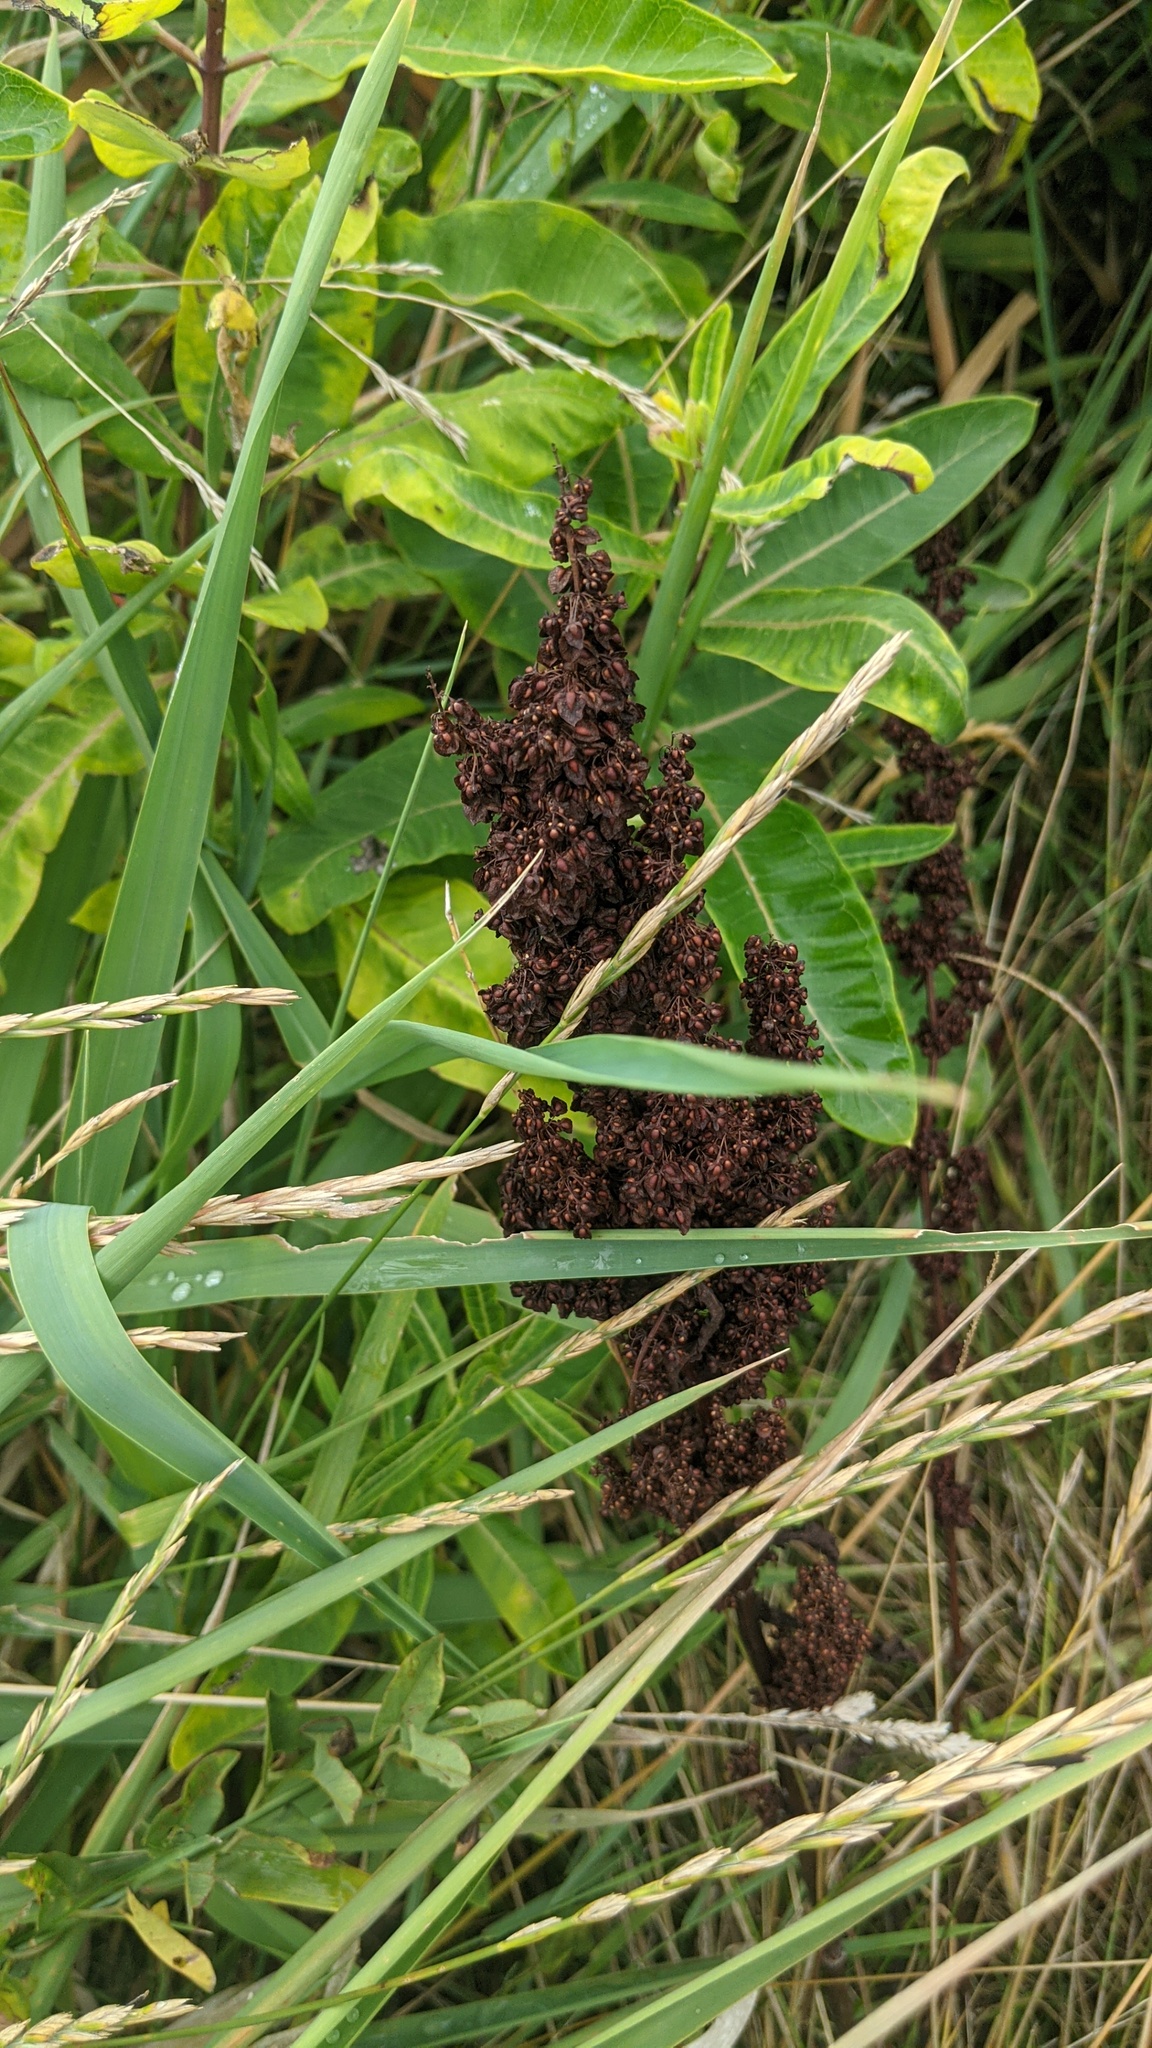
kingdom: Plantae
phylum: Tracheophyta
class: Magnoliopsida
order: Caryophyllales
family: Polygonaceae
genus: Rumex
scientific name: Rumex crispus
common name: Curled dock
